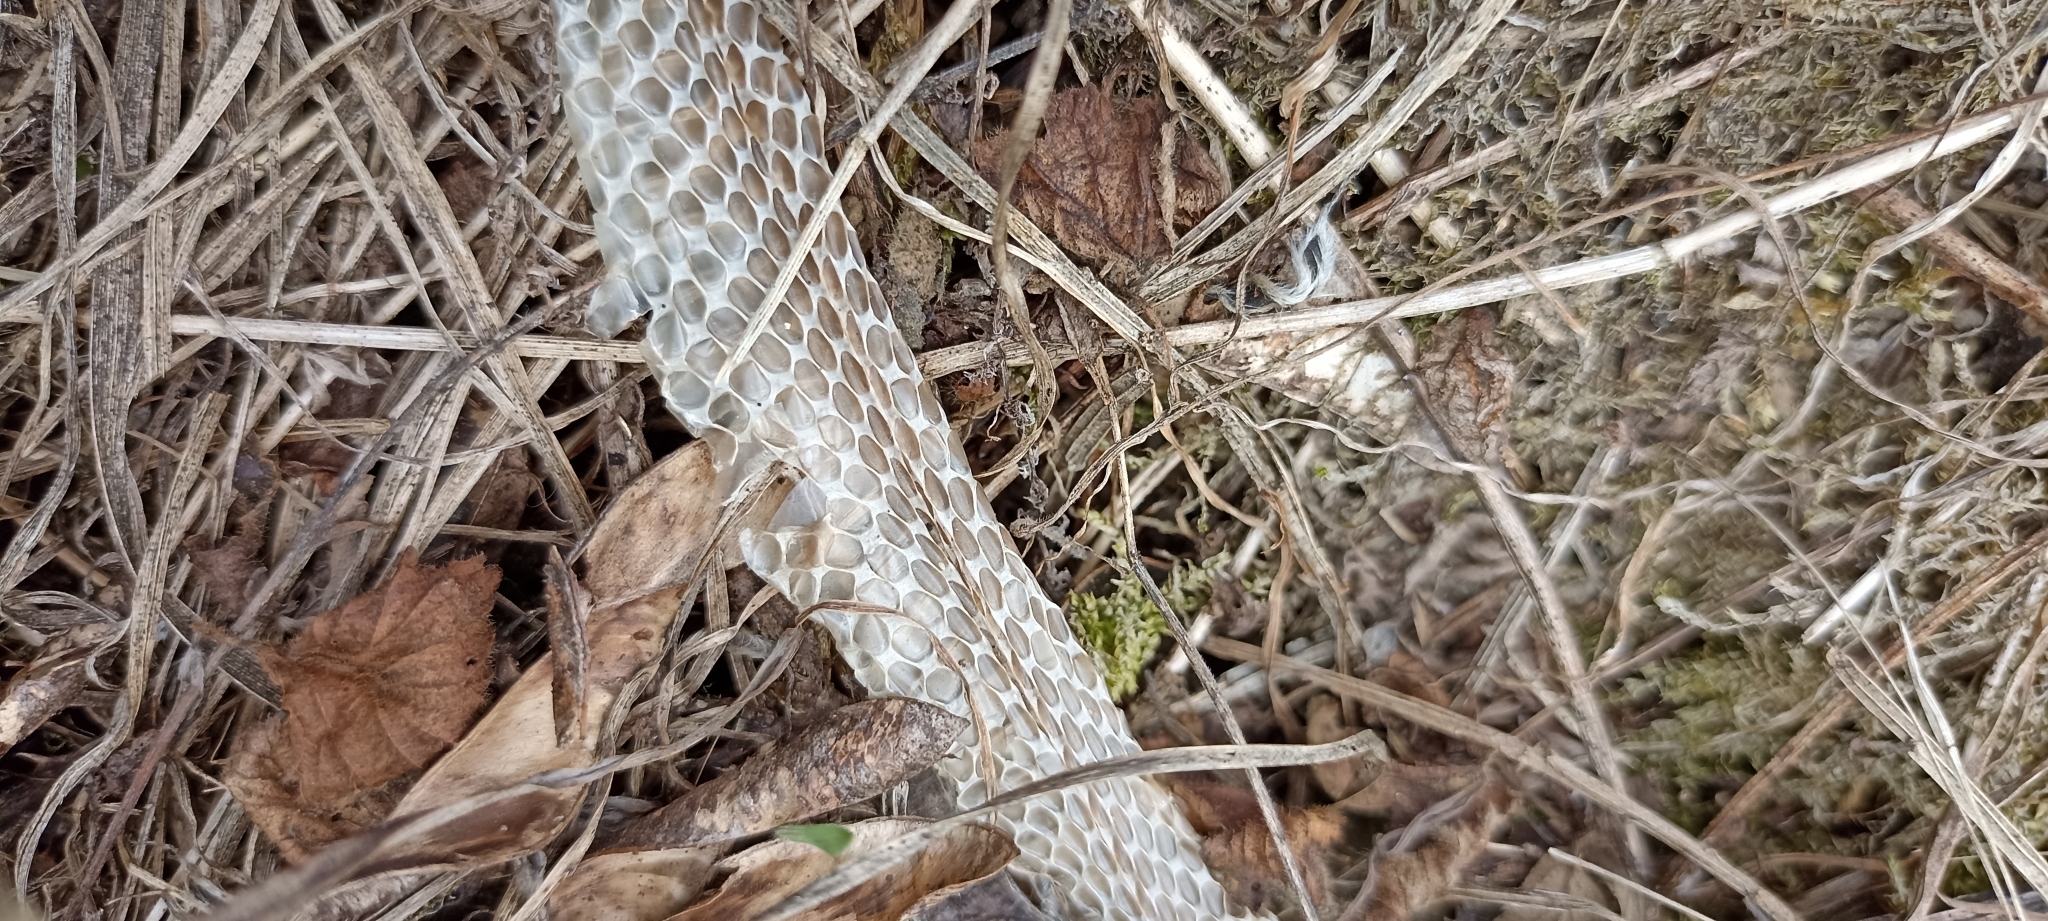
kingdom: Animalia
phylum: Chordata
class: Squamata
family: Colubridae
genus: Coronella
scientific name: Coronella austriaca
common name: Smooth snake
